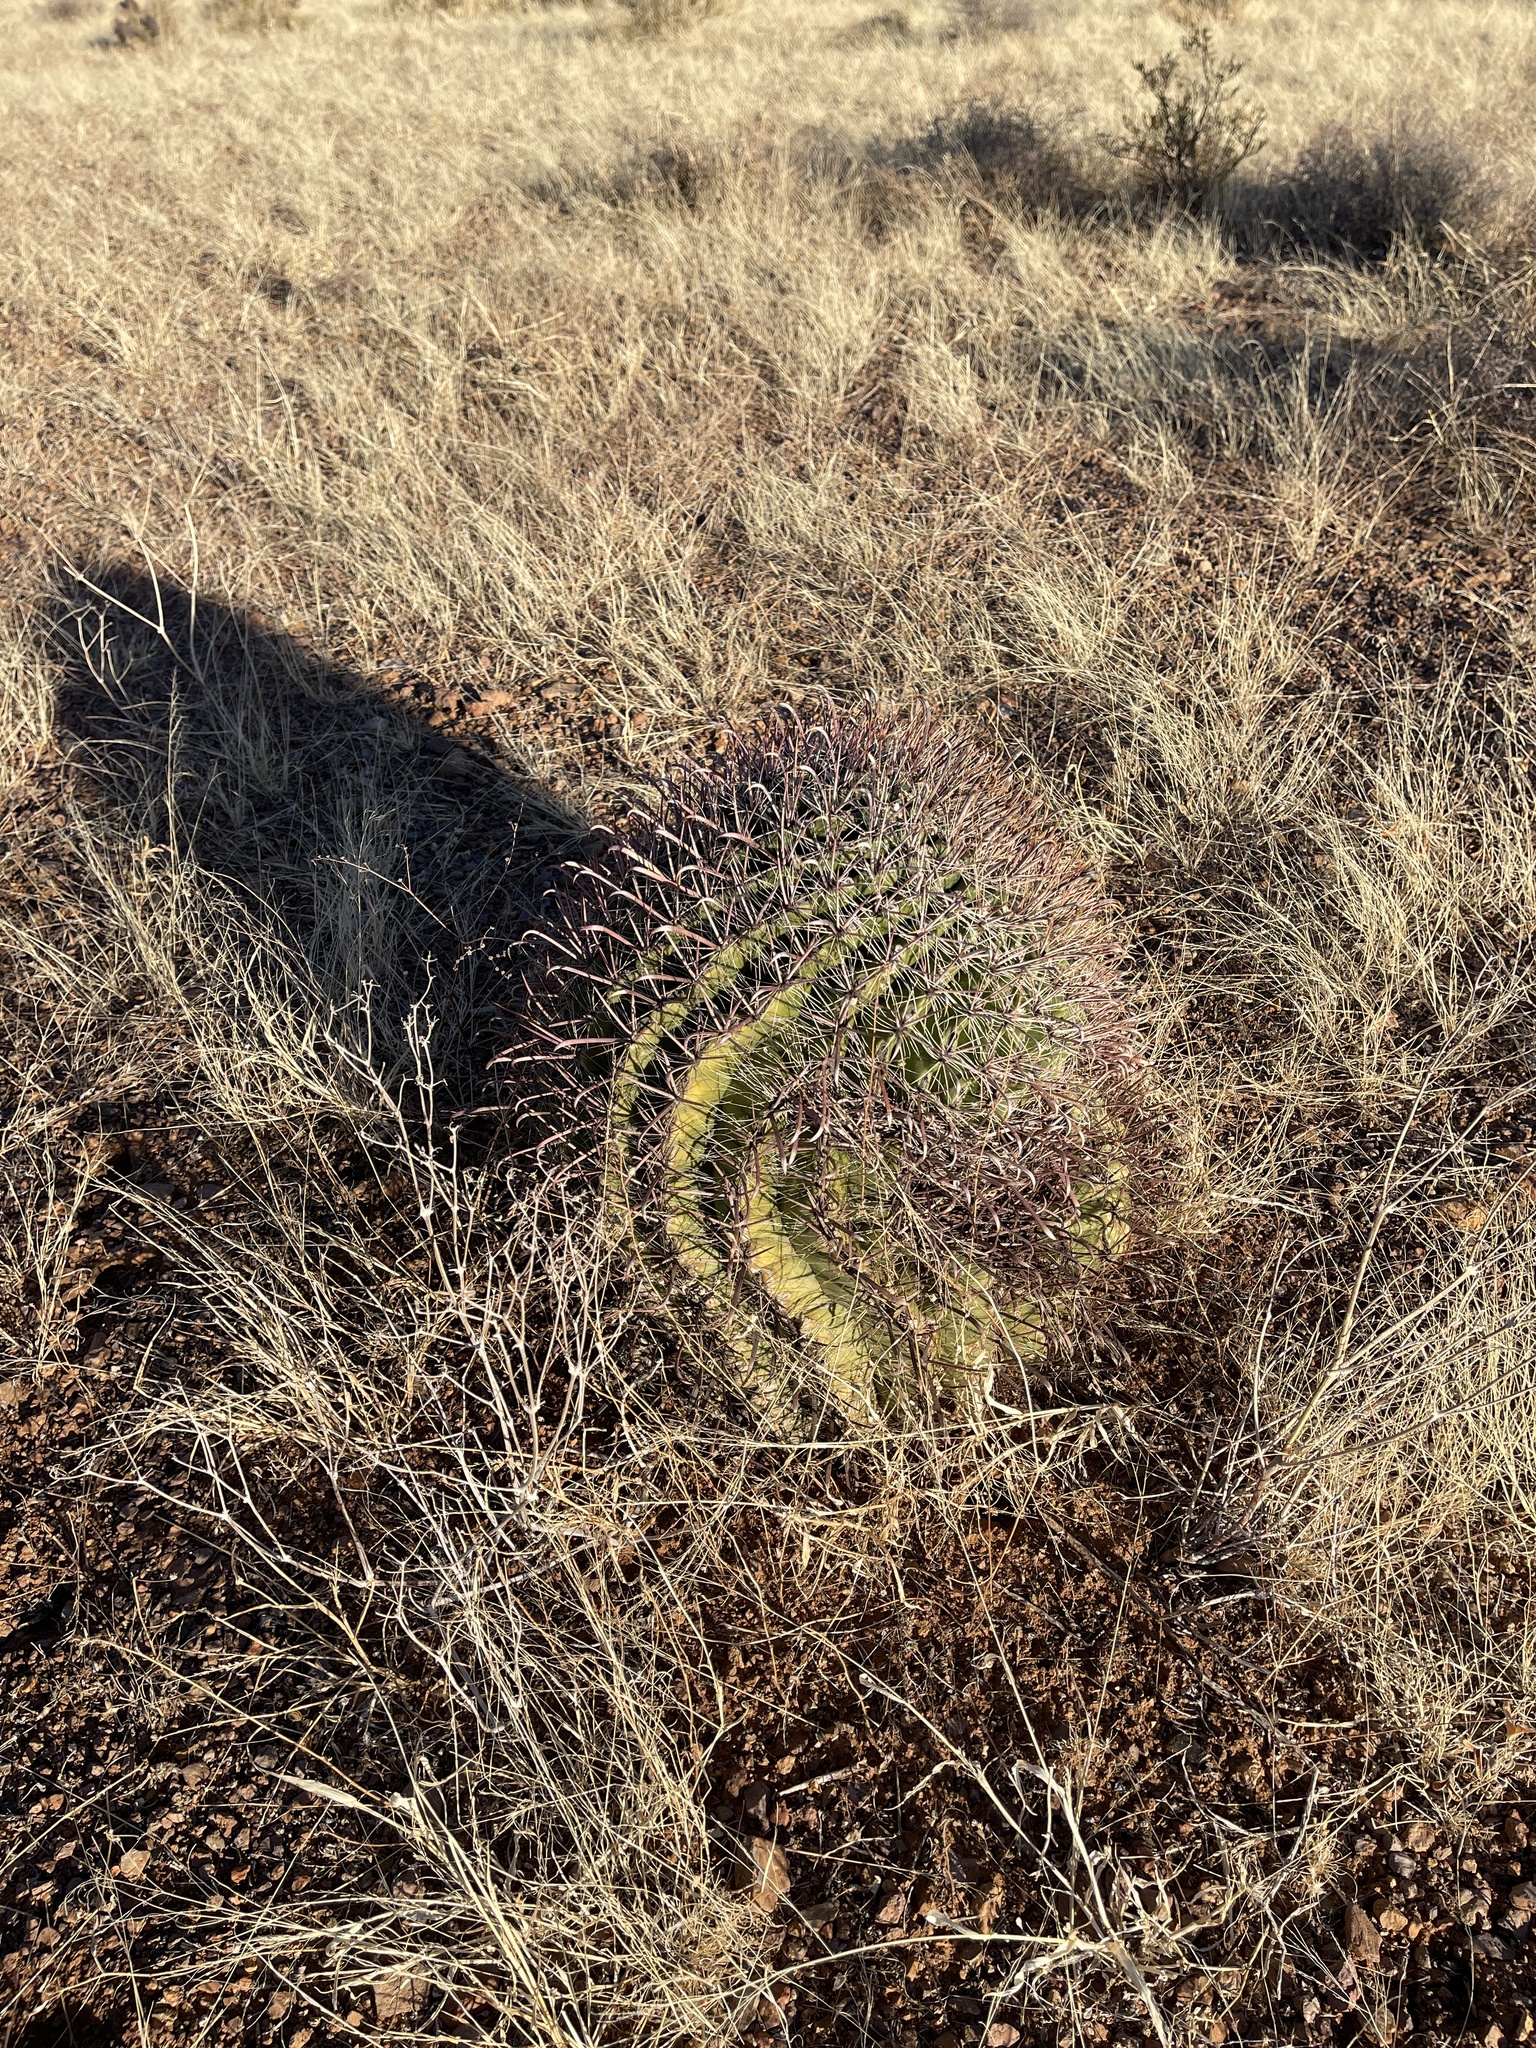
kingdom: Plantae
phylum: Tracheophyta
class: Magnoliopsida
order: Caryophyllales
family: Cactaceae
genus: Ferocactus
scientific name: Ferocactus wislizeni
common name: Candy barrel cactus
